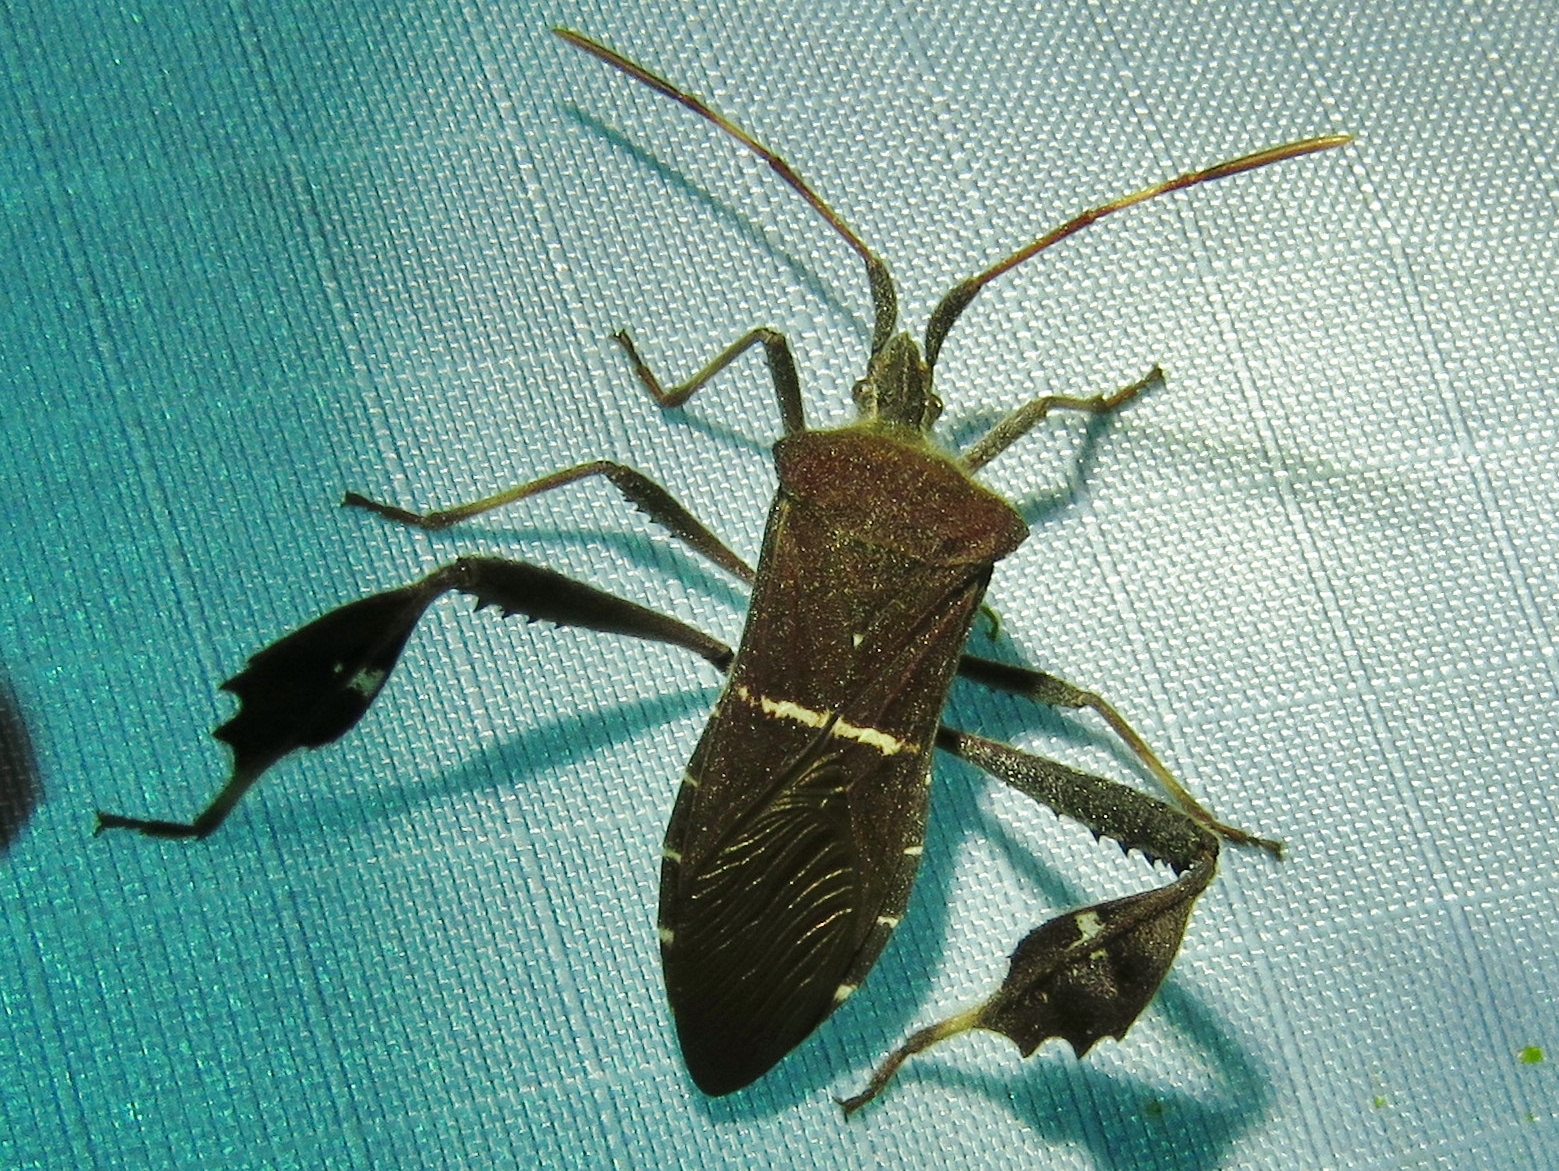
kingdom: Animalia
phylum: Arthropoda
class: Insecta
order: Hemiptera
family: Coreidae
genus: Leptoglossus
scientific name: Leptoglossus phyllopus
